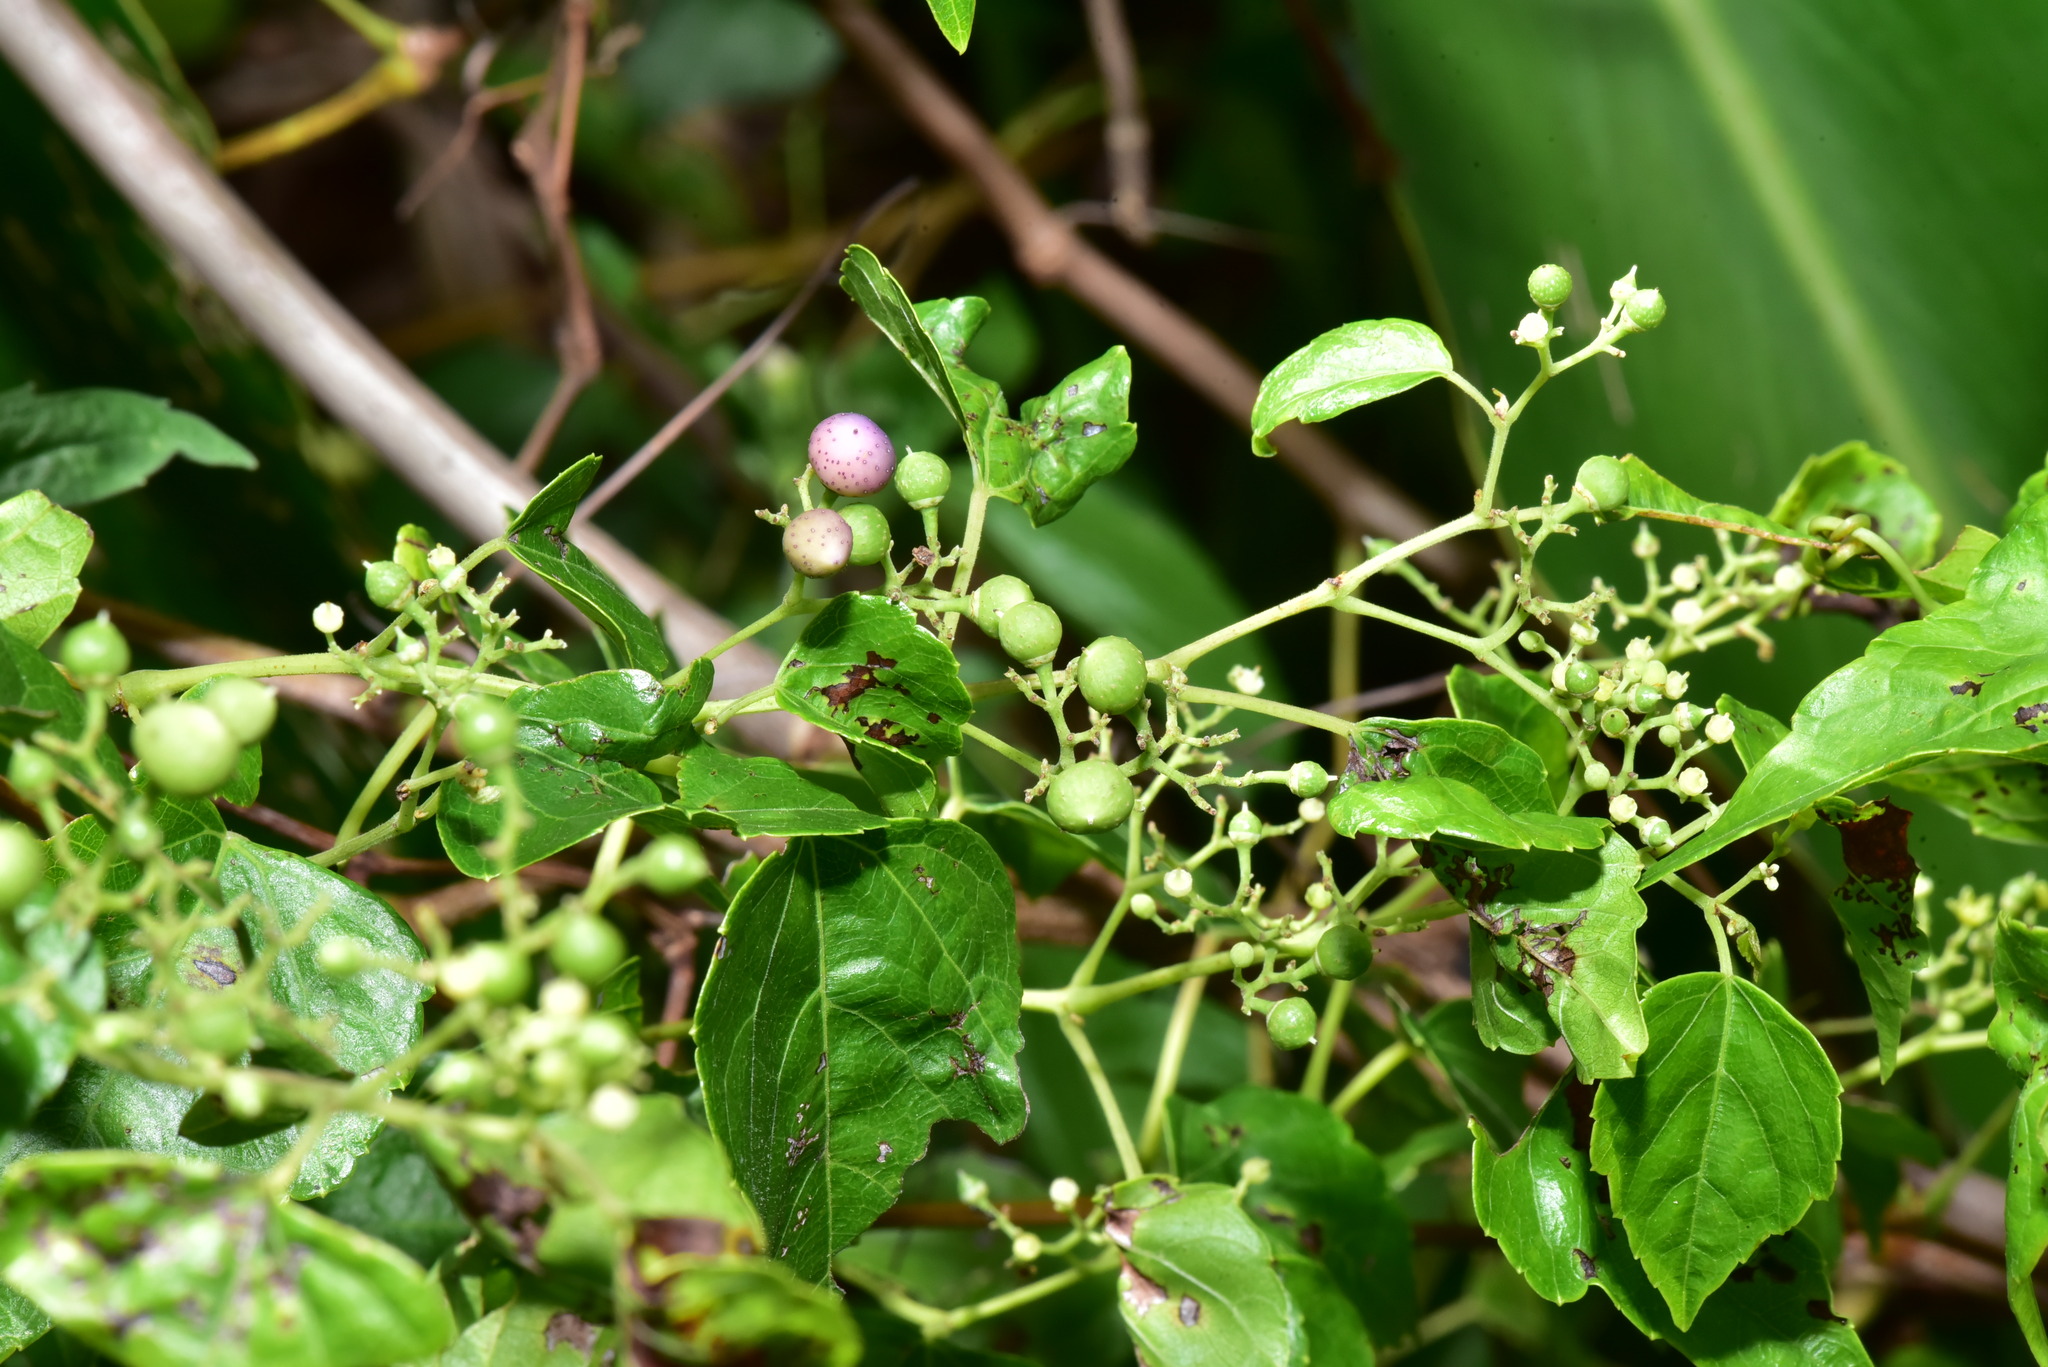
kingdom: Plantae
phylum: Tracheophyta
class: Magnoliopsida
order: Vitales
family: Vitaceae
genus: Ampelopsis
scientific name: Ampelopsis glandulosa
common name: Amur peppervine
